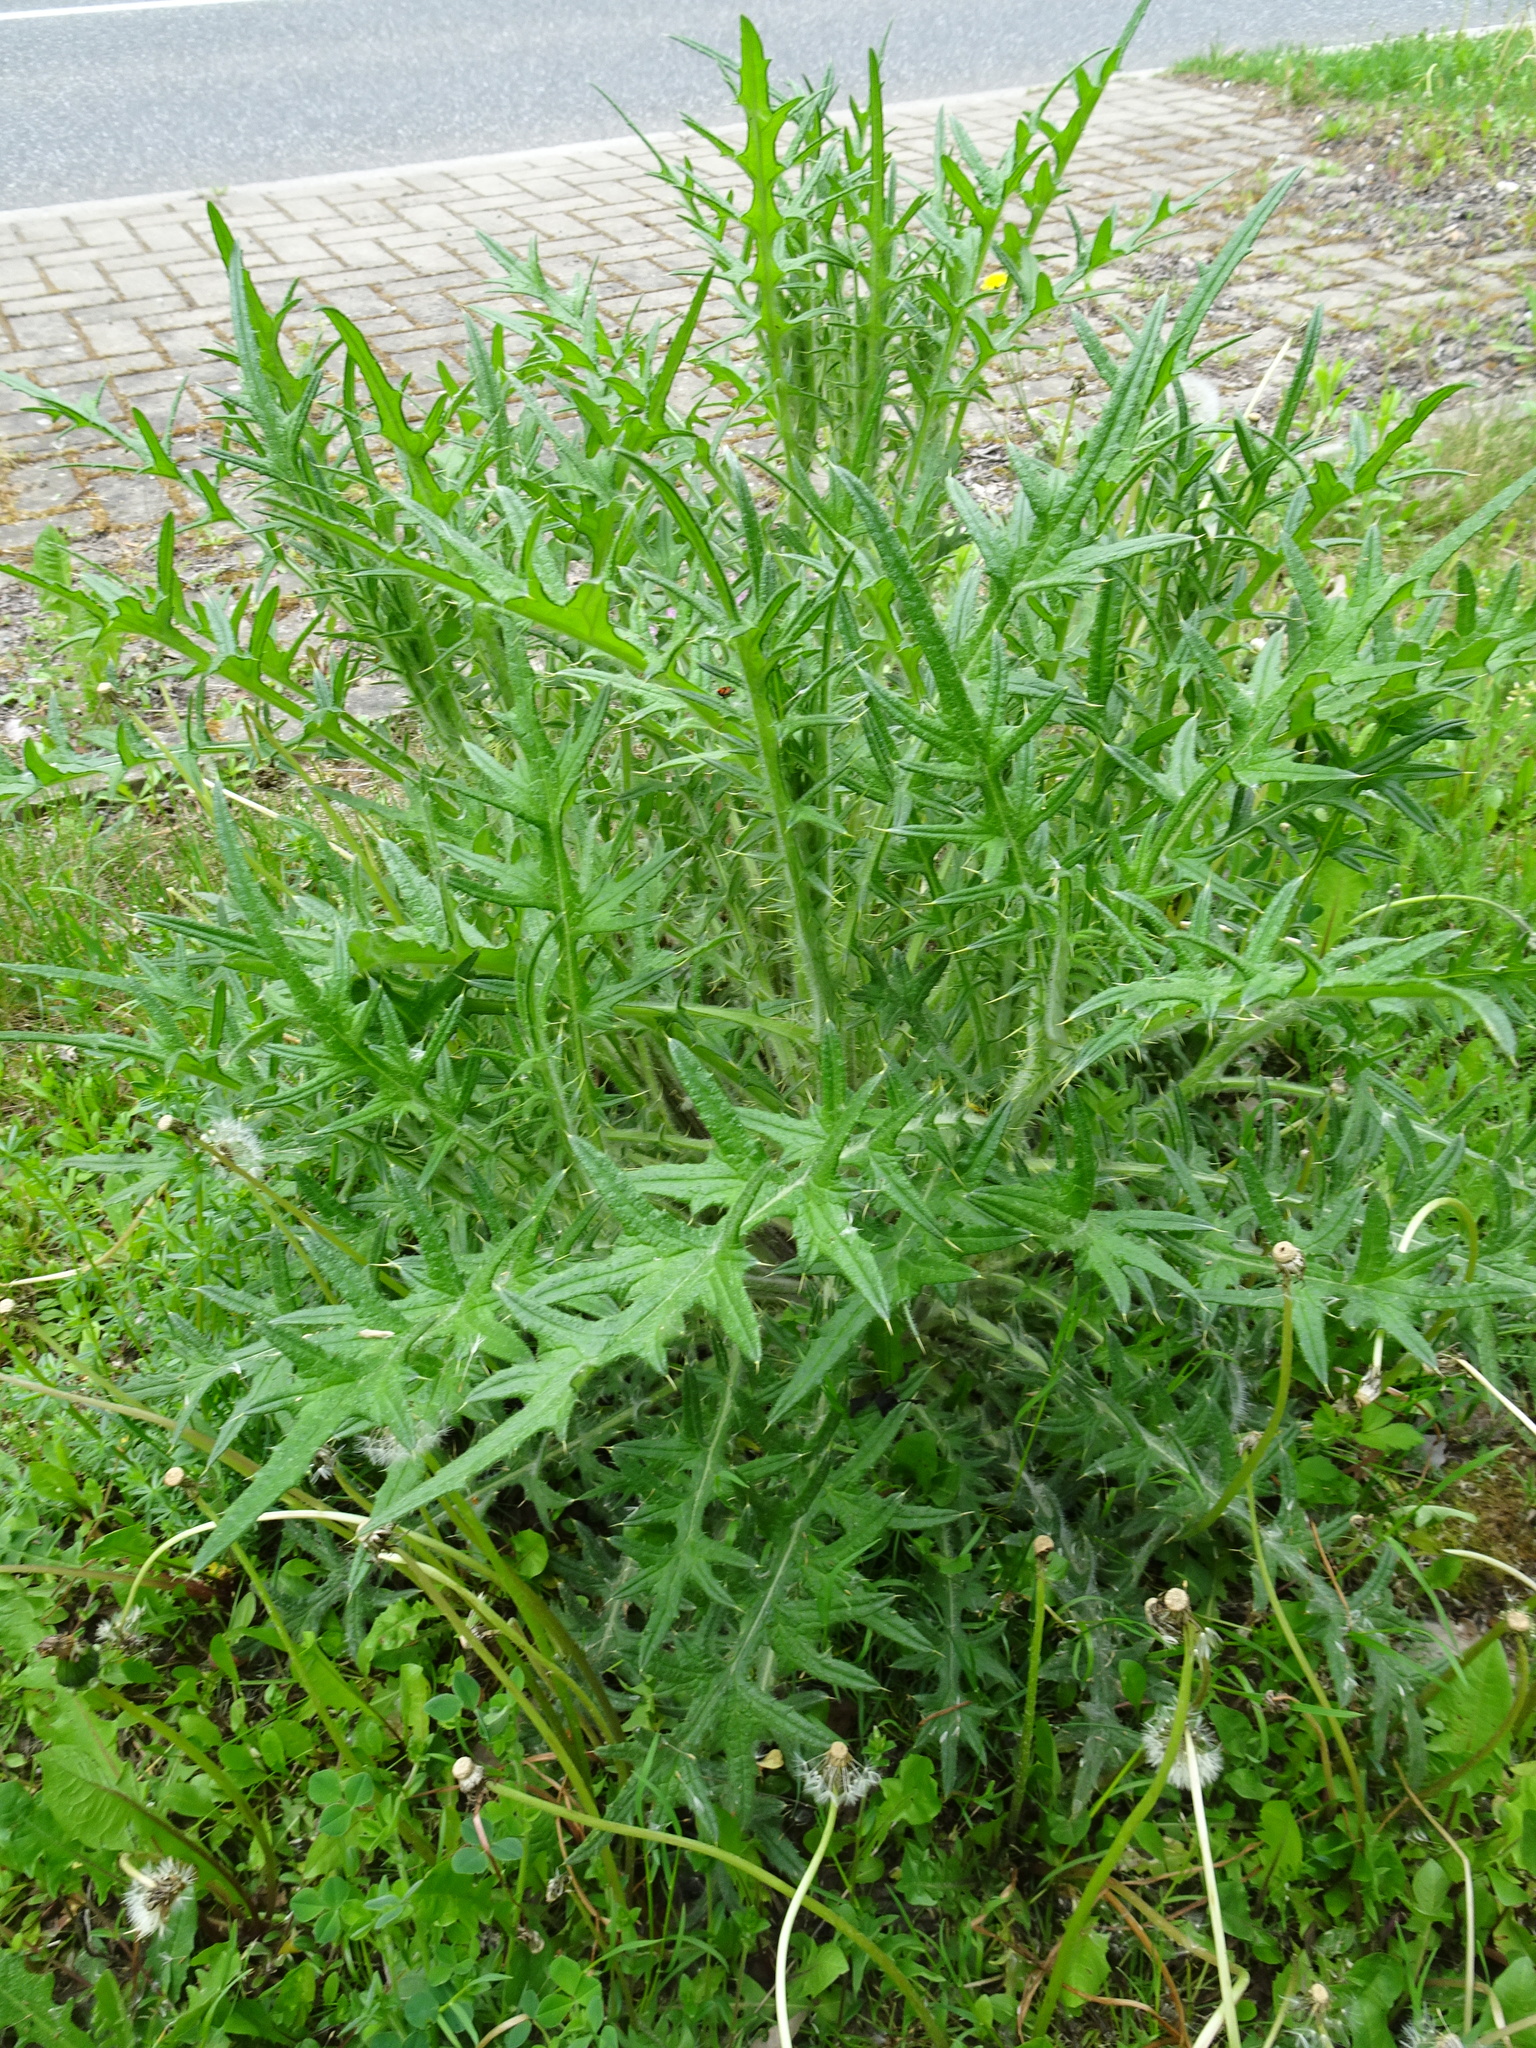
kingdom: Plantae
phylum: Tracheophyta
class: Magnoliopsida
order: Asterales
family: Asteraceae
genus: Cirsium
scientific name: Cirsium vulgare
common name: Bull thistle
